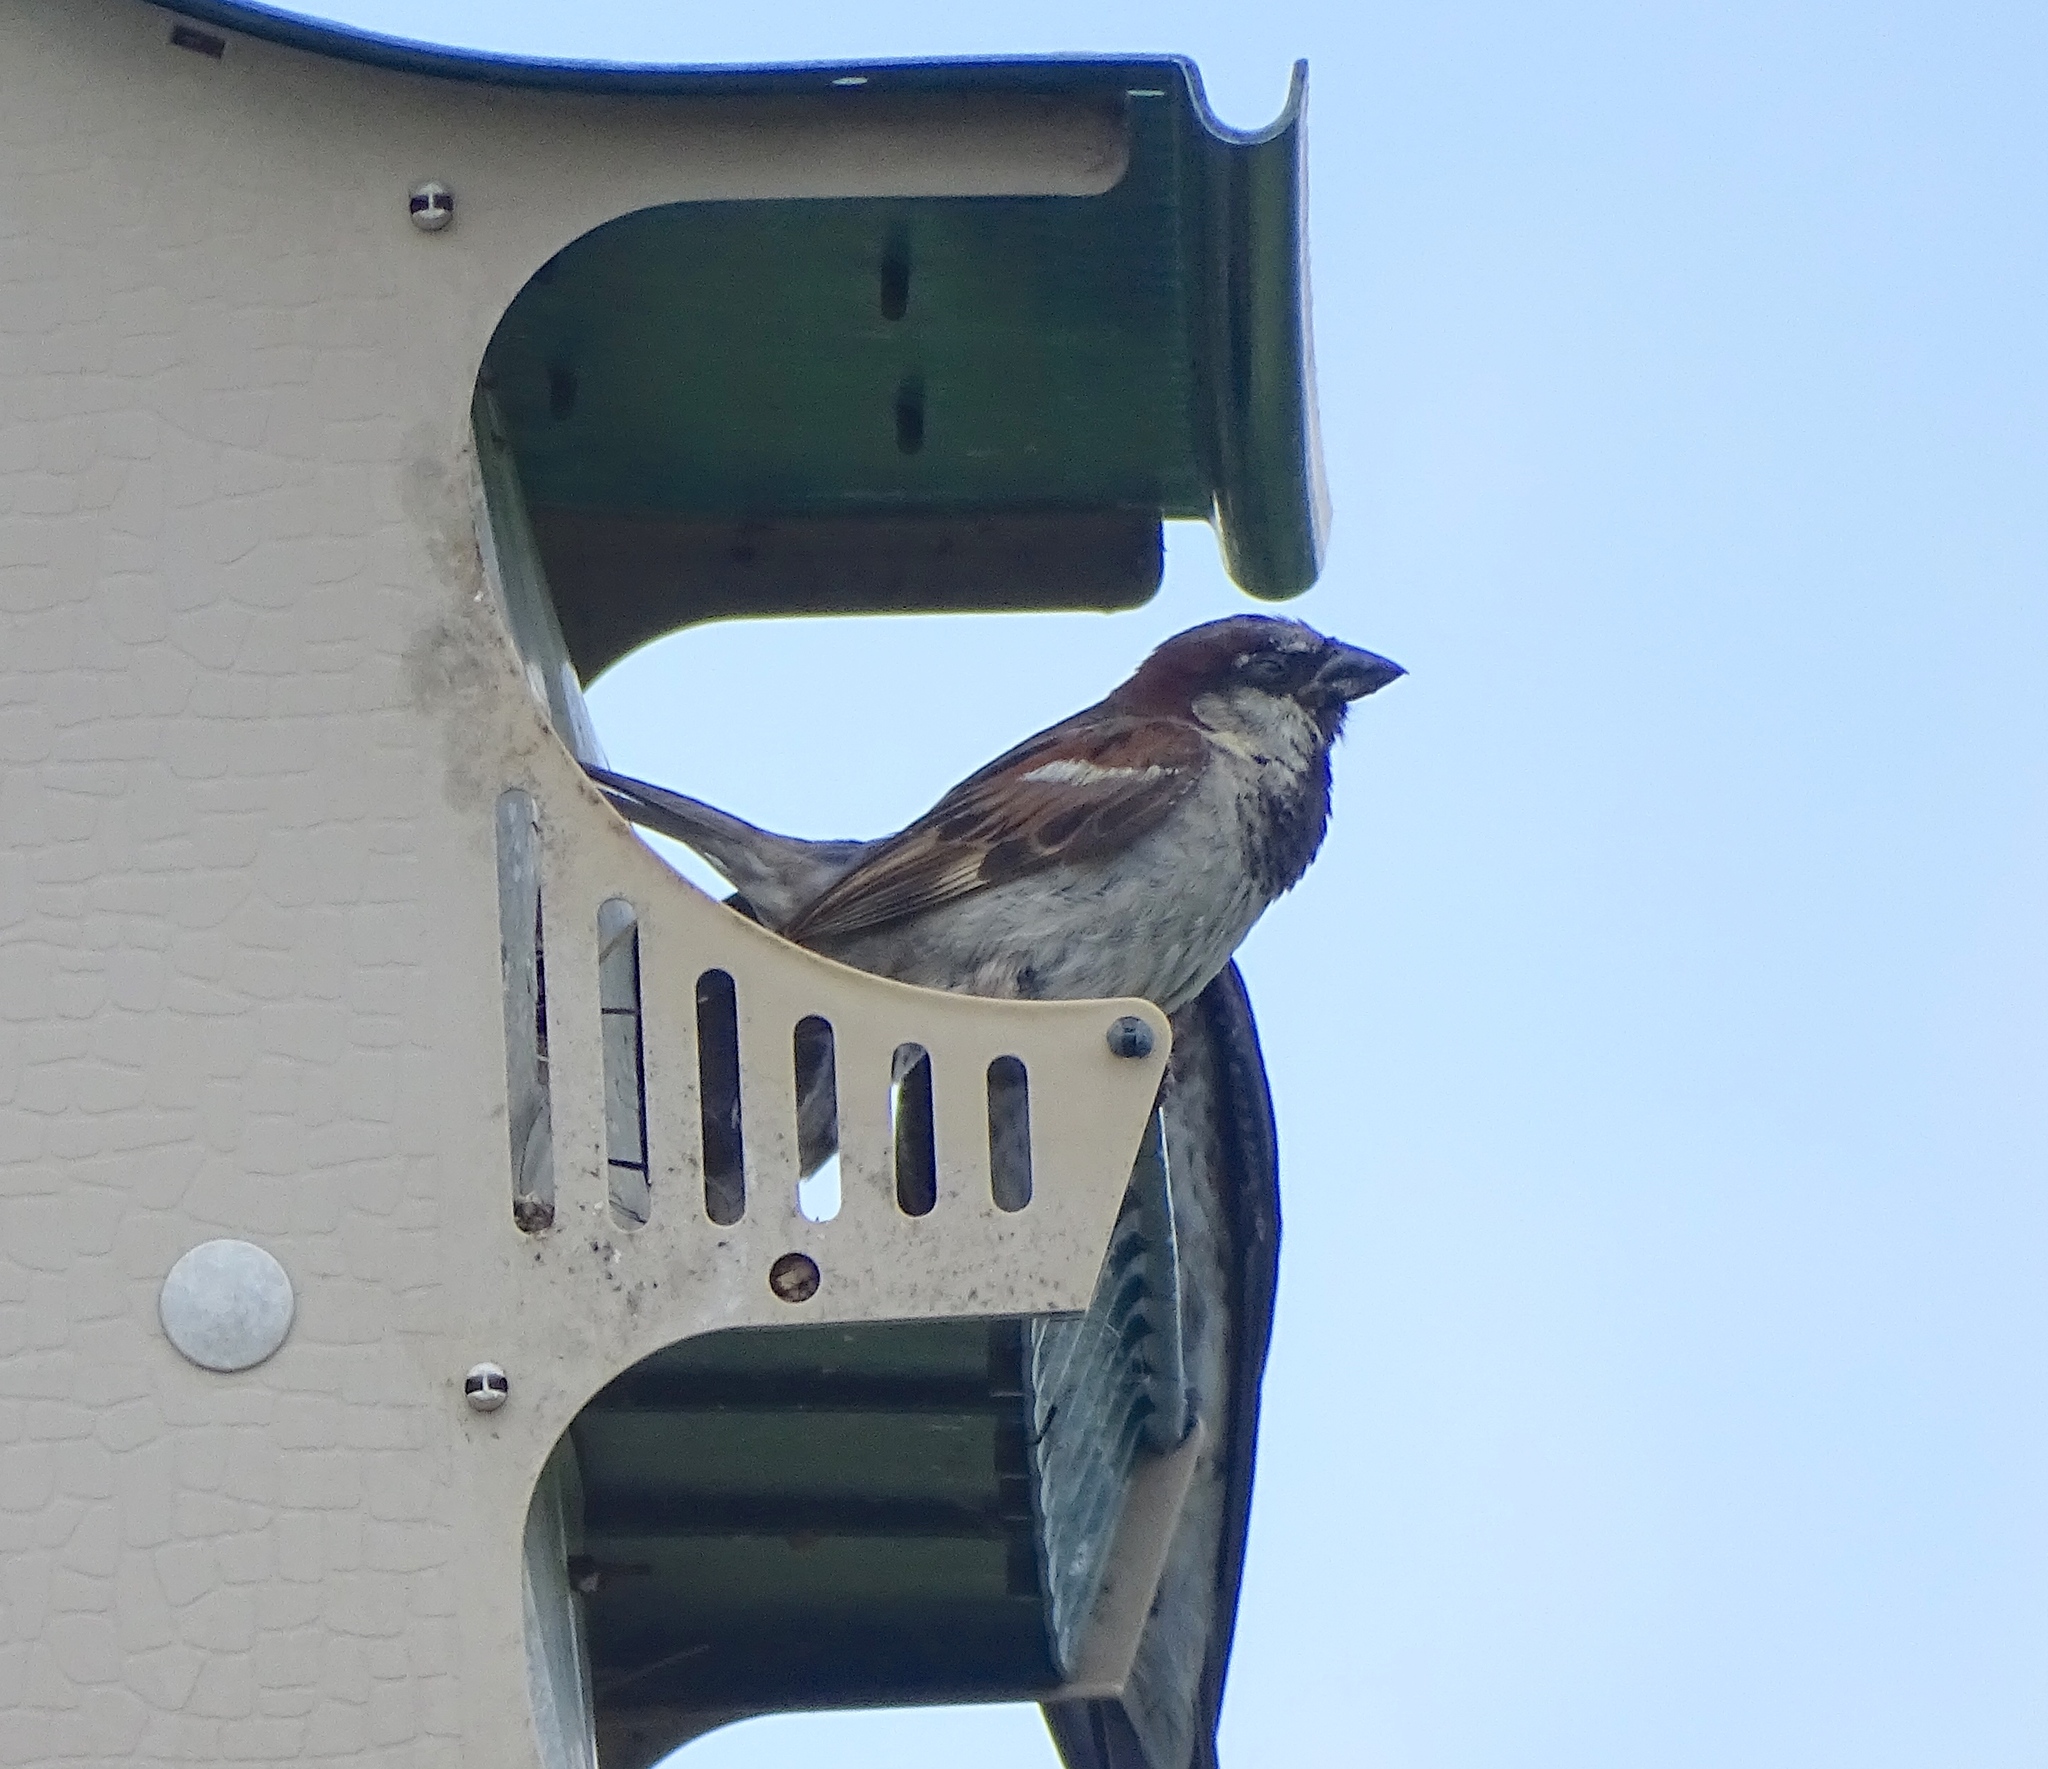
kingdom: Animalia
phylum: Chordata
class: Aves
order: Passeriformes
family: Passeridae
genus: Passer
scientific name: Passer domesticus
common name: House sparrow
